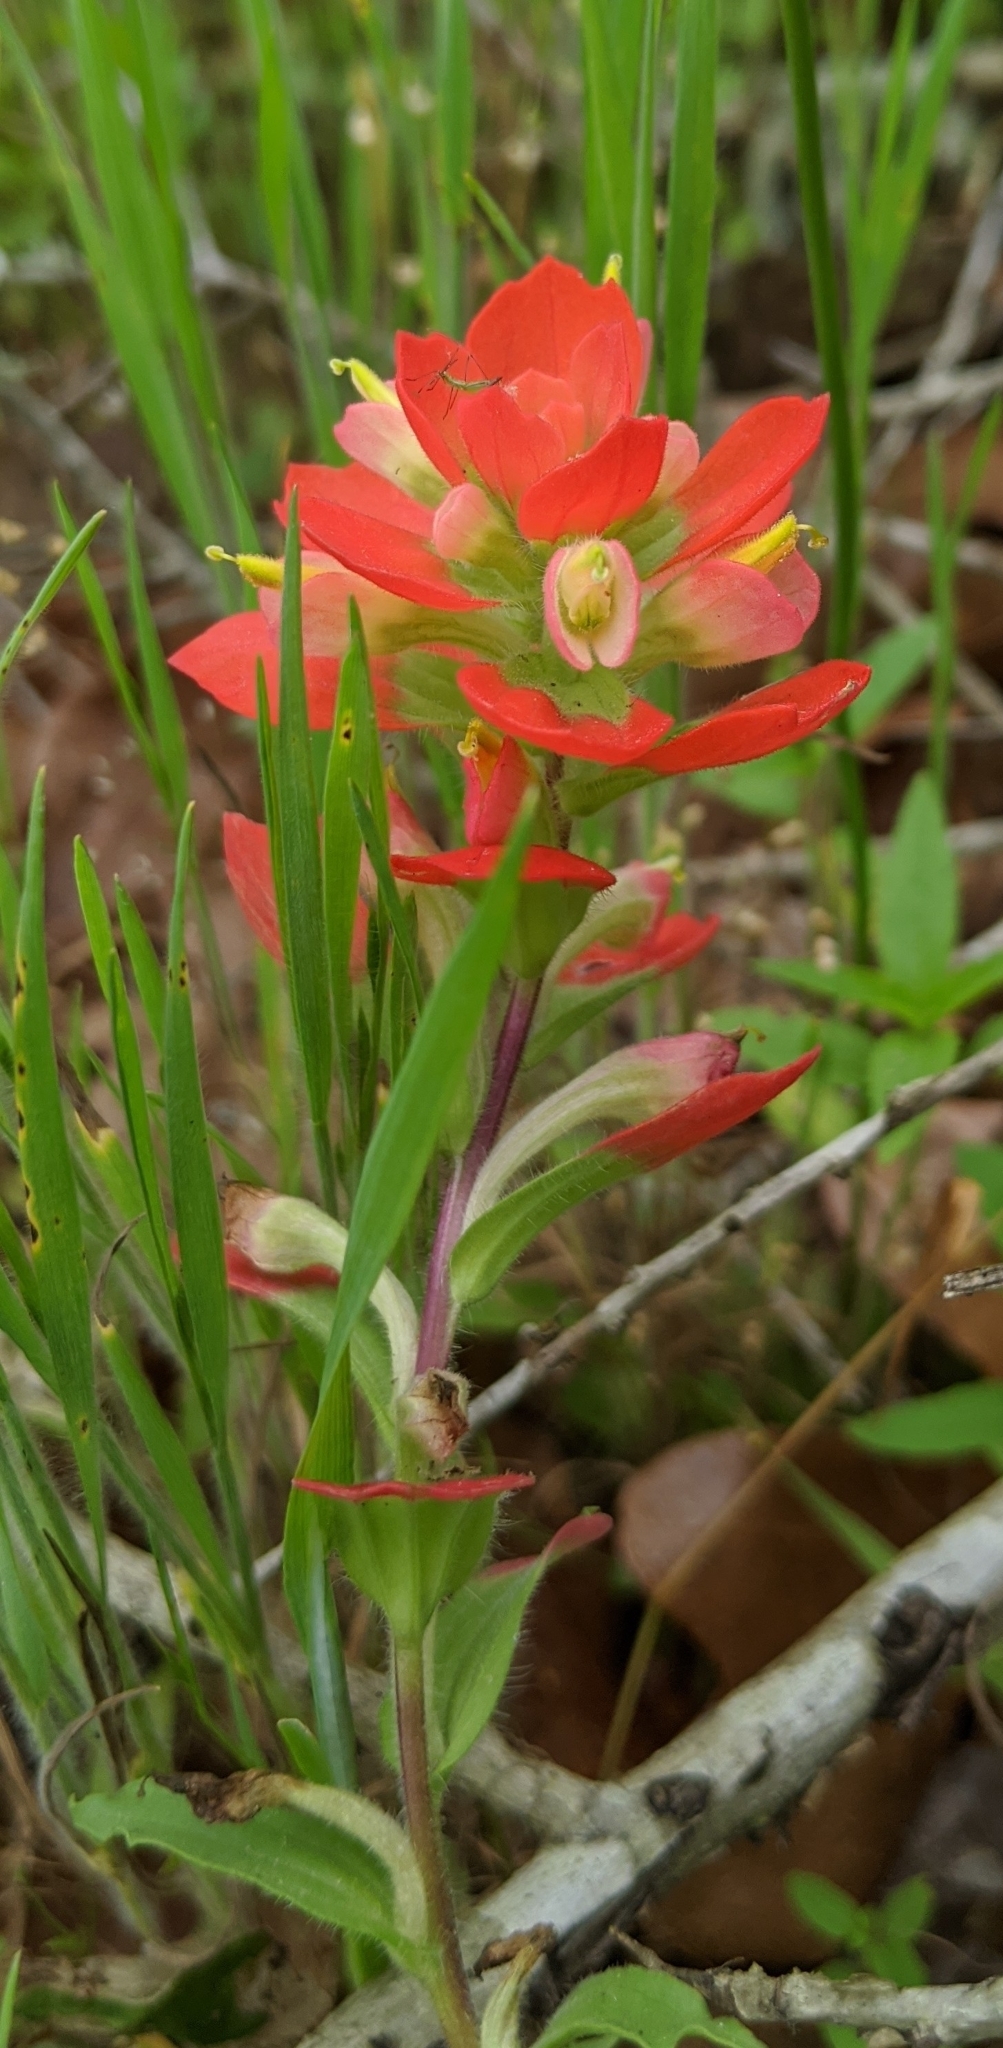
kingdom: Plantae
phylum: Tracheophyta
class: Magnoliopsida
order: Lamiales
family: Orobanchaceae
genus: Castilleja
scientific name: Castilleja indivisa
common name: Texas paintbrush
